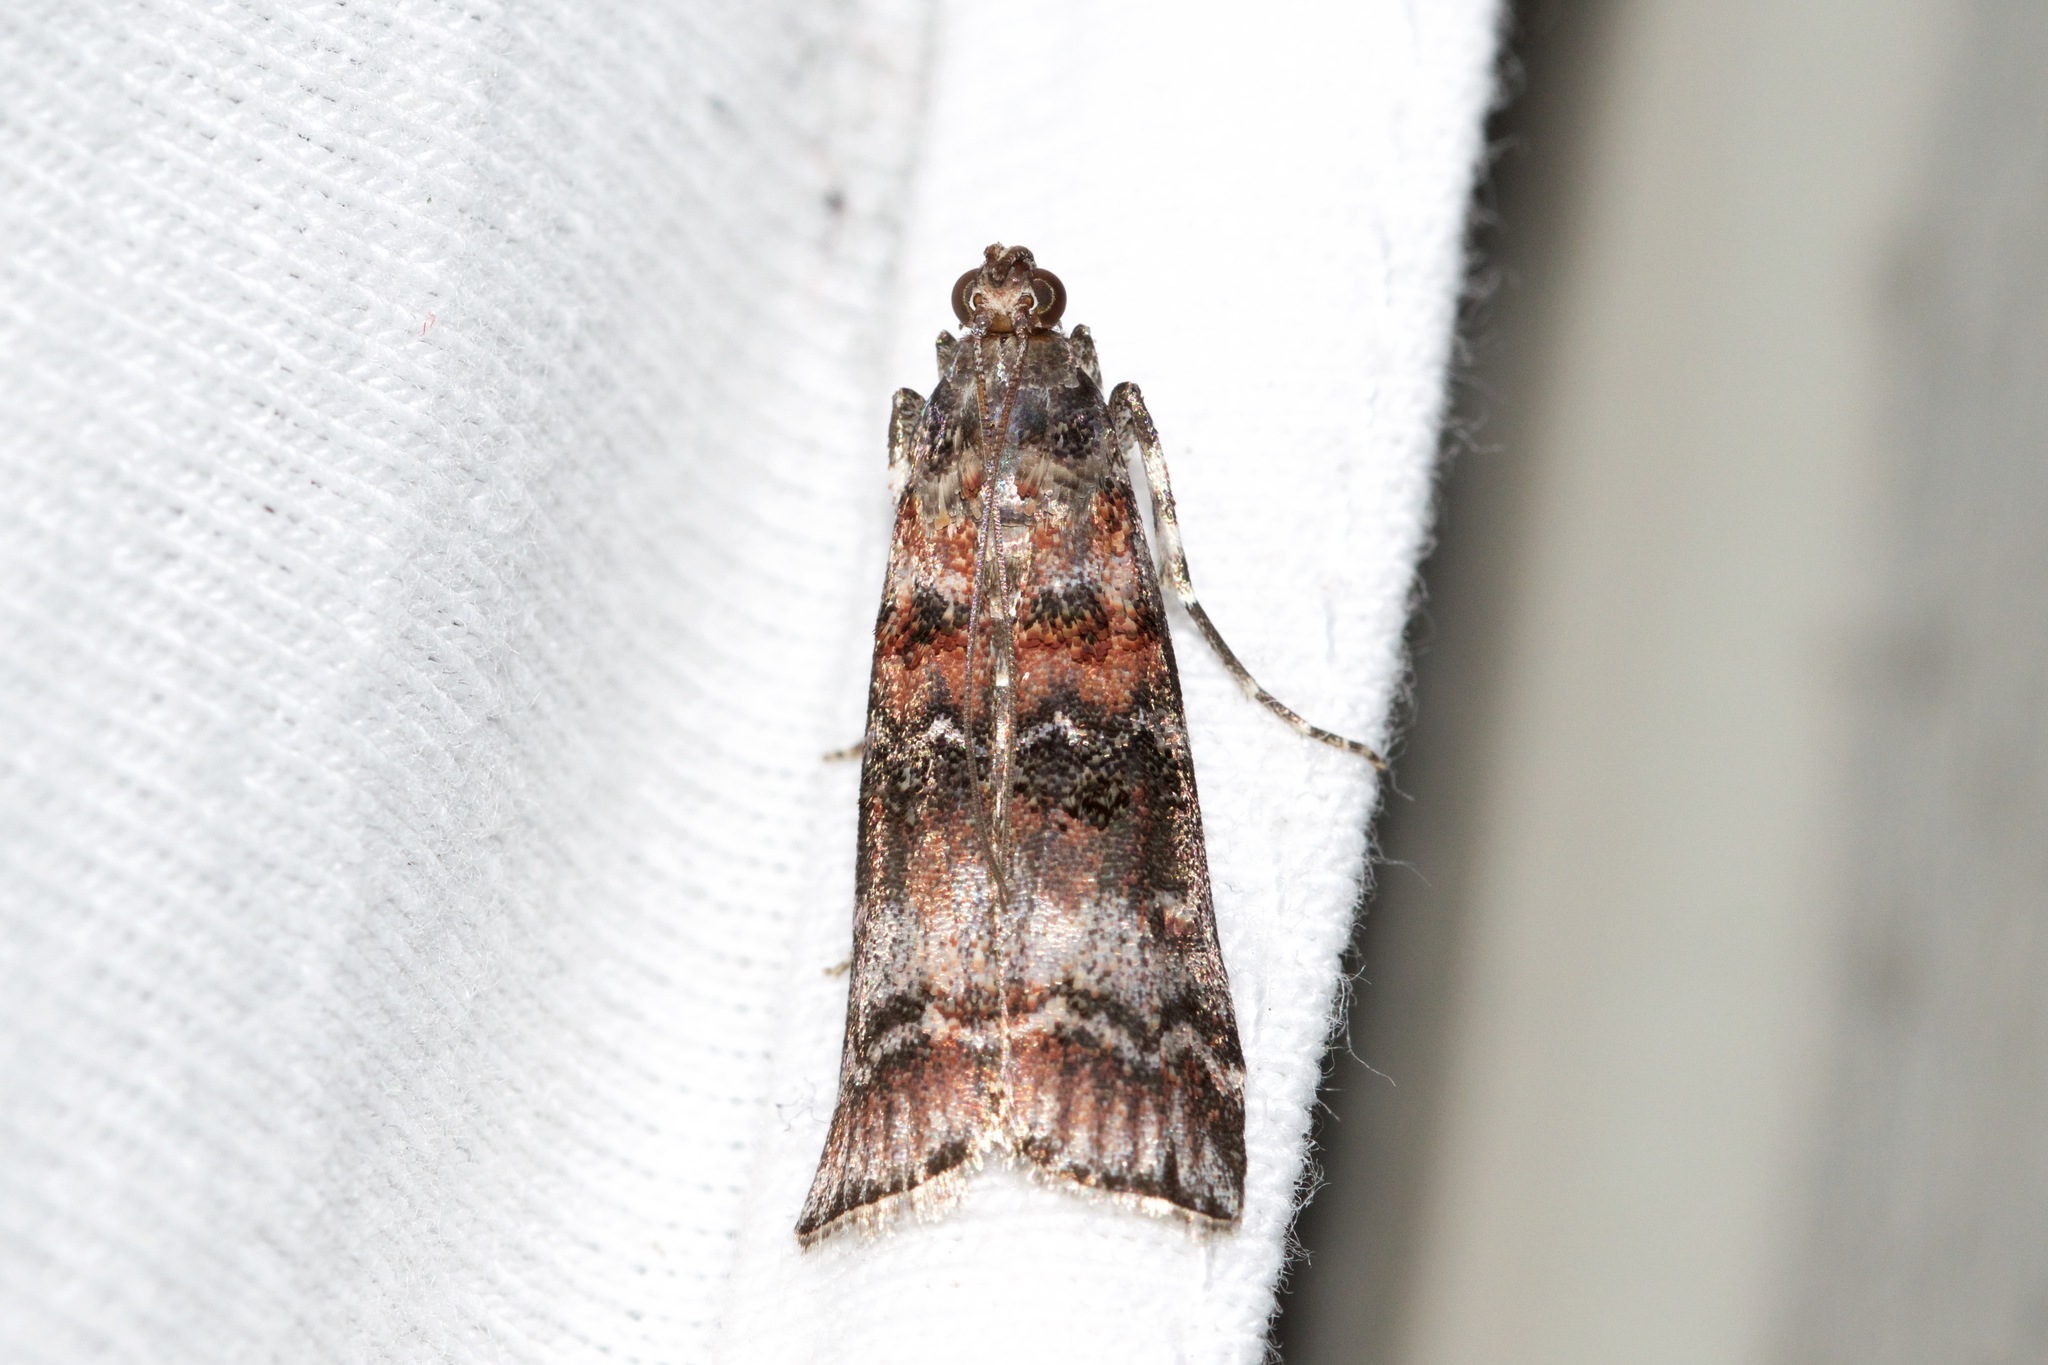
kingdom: Animalia
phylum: Arthropoda
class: Insecta
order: Lepidoptera
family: Pyralidae
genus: Dioryctria
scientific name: Dioryctria zimmermani
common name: Zimmerman pine moth
